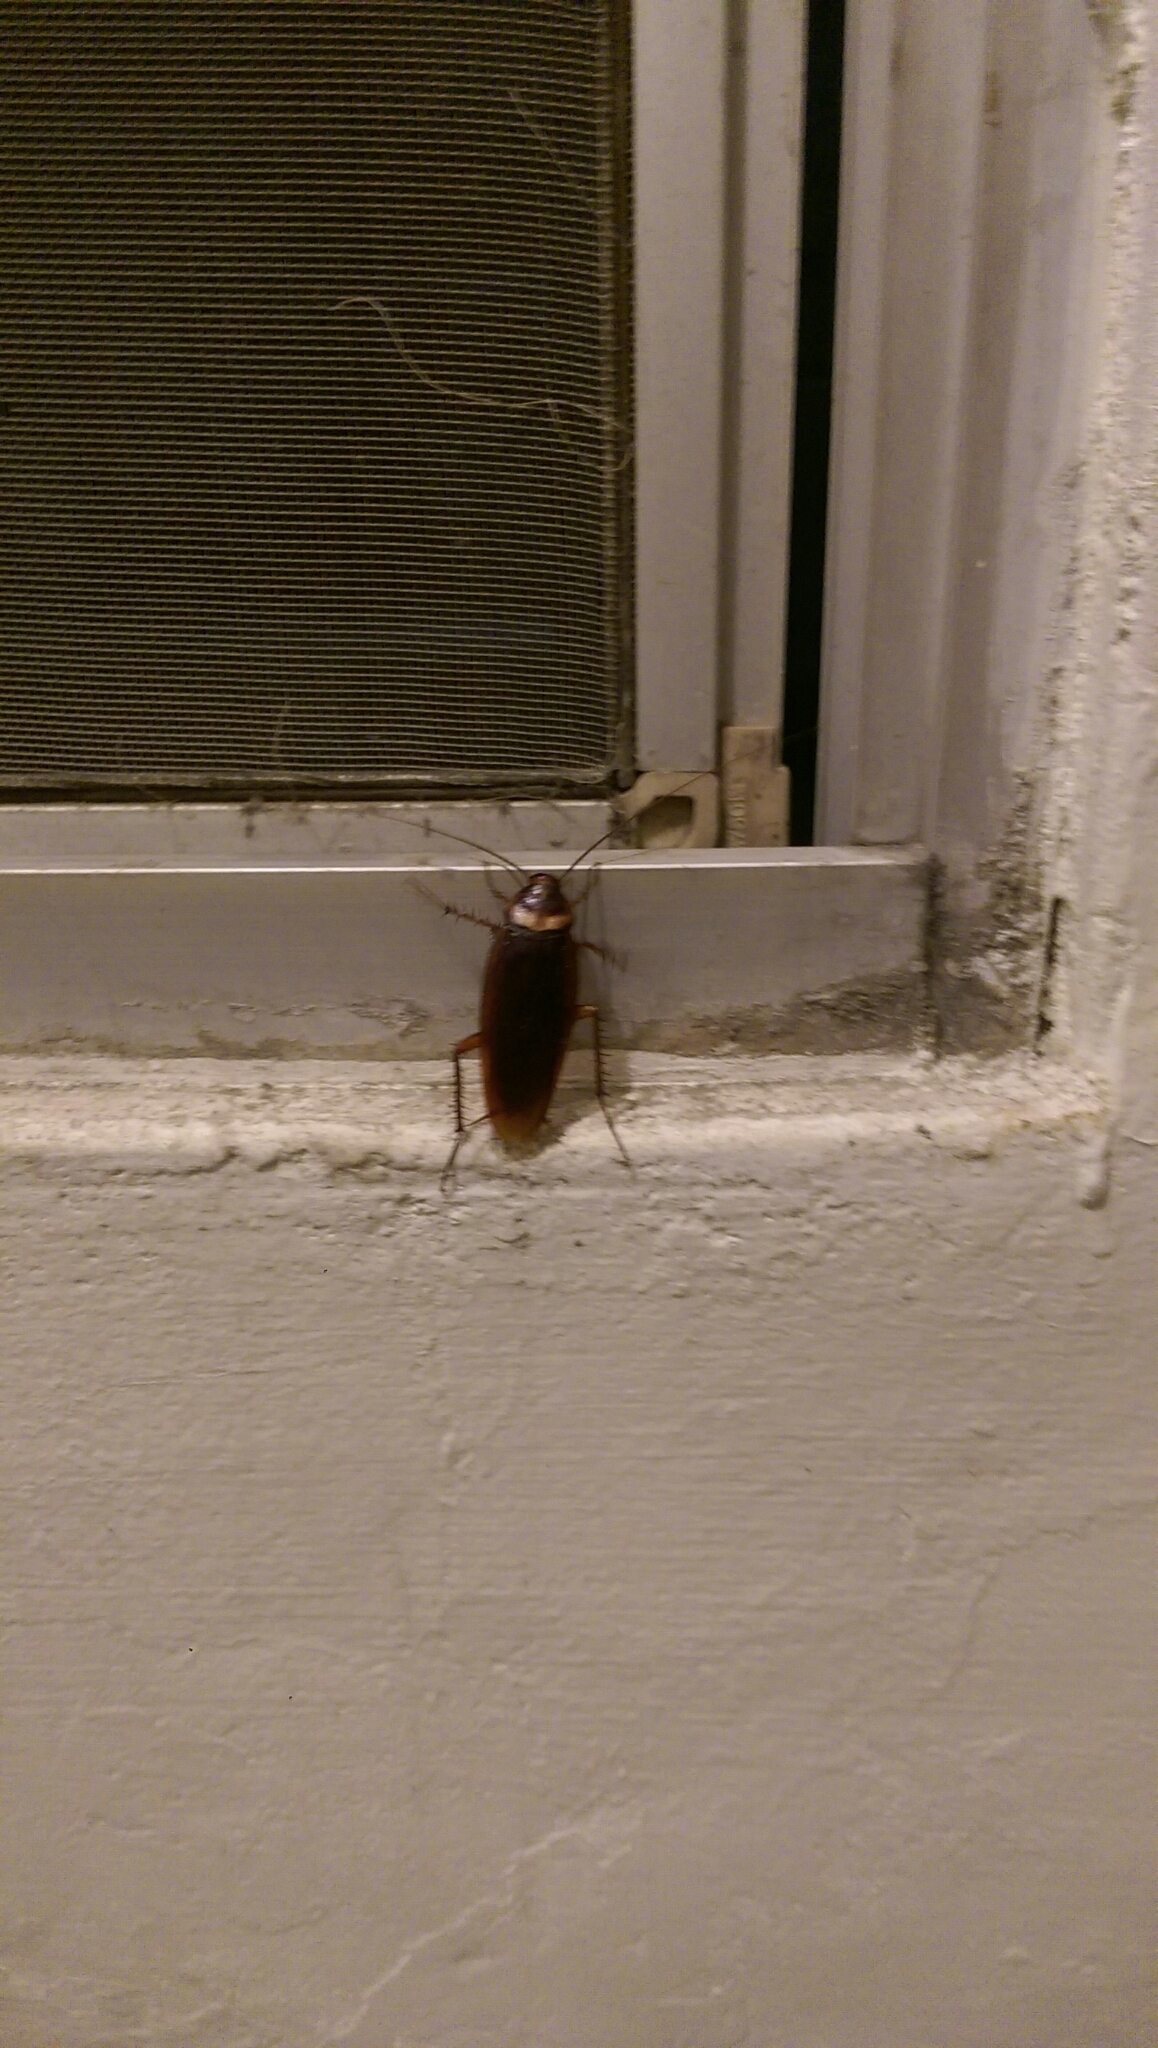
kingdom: Animalia
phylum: Arthropoda
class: Insecta
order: Blattodea
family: Blattidae
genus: Periplaneta
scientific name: Periplaneta americana
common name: American cockroach
